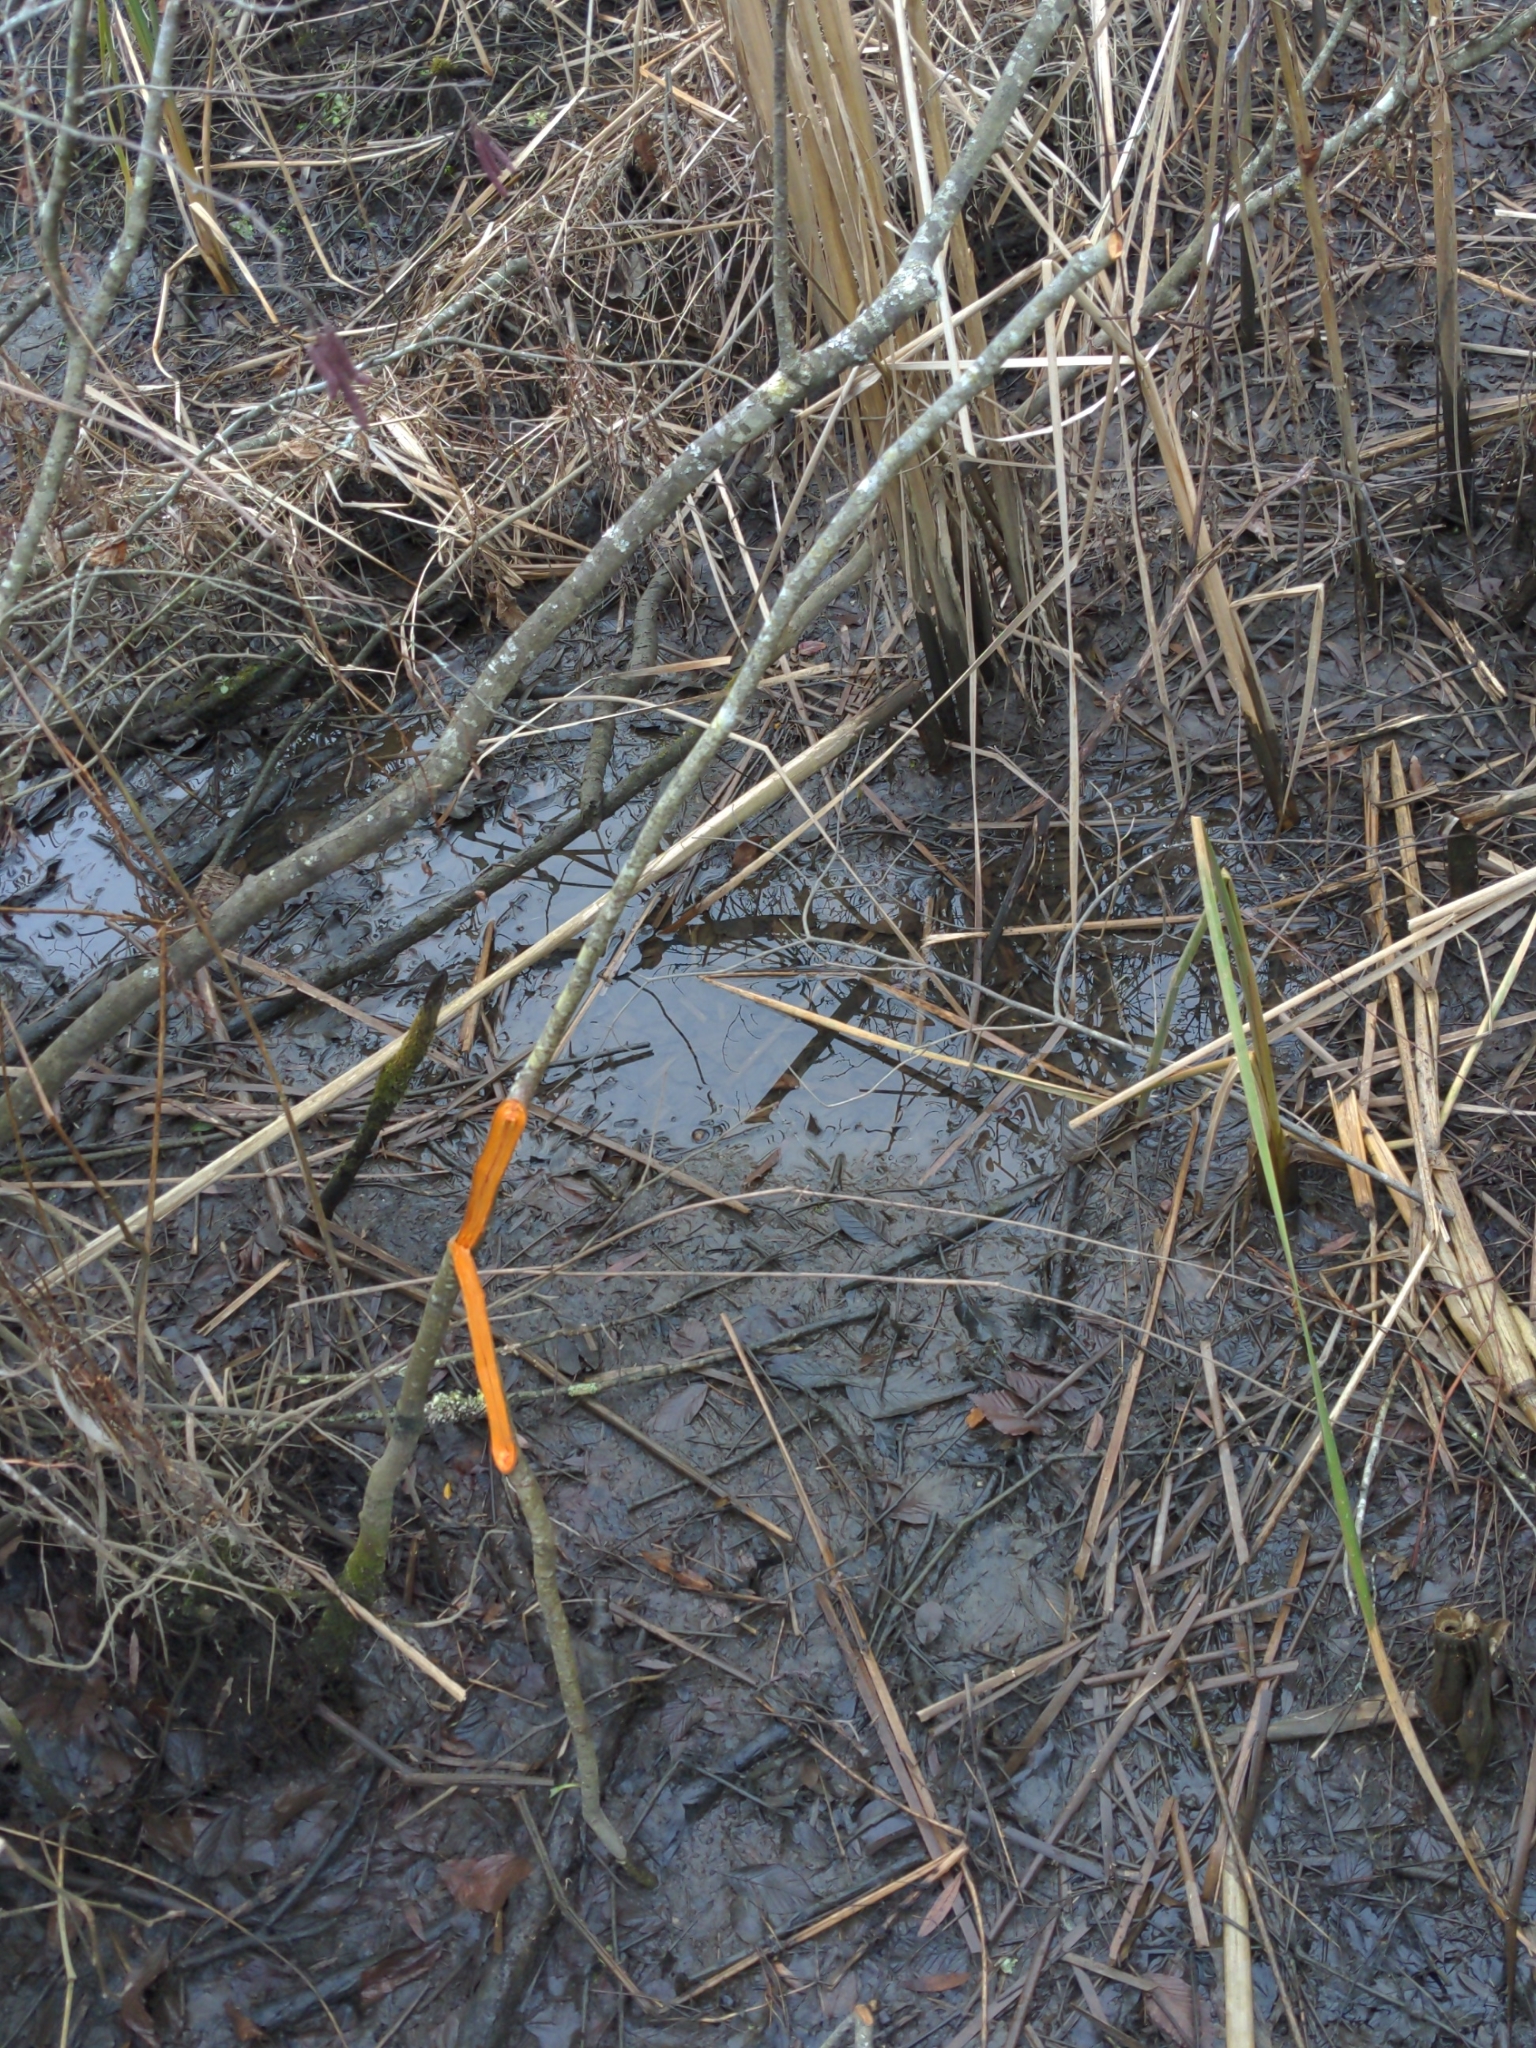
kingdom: Plantae
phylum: Tracheophyta
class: Magnoliopsida
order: Fagales
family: Betulaceae
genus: Alnus
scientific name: Alnus serrulata
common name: Hazel alder
